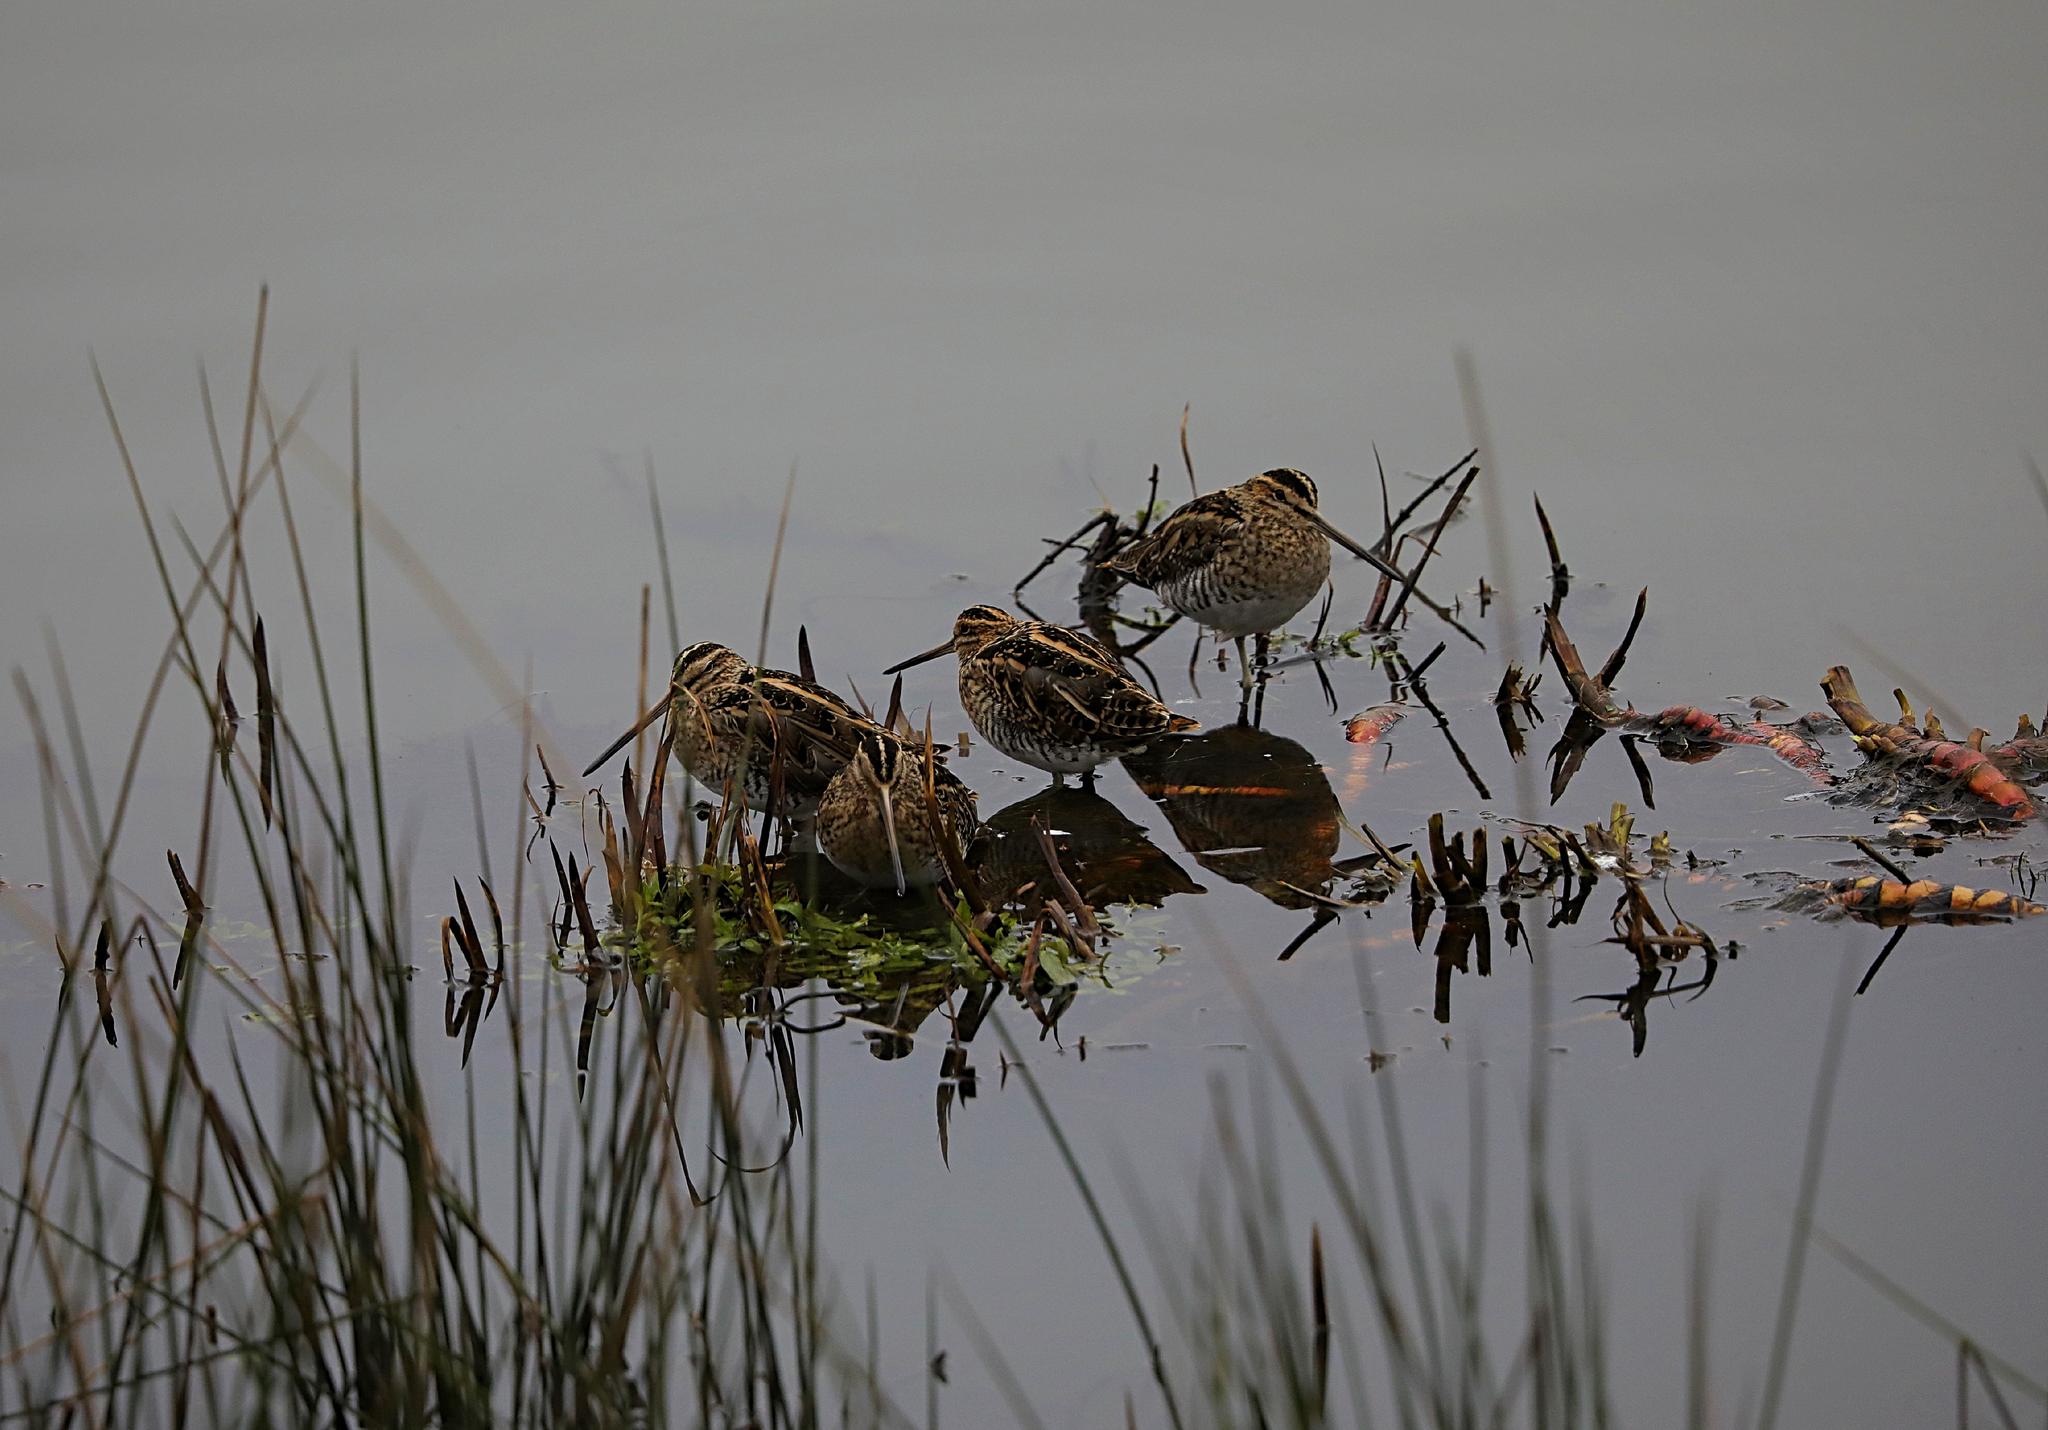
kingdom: Animalia
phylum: Chordata
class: Aves
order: Charadriiformes
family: Scolopacidae
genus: Gallinago
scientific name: Gallinago gallinago
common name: Common snipe
